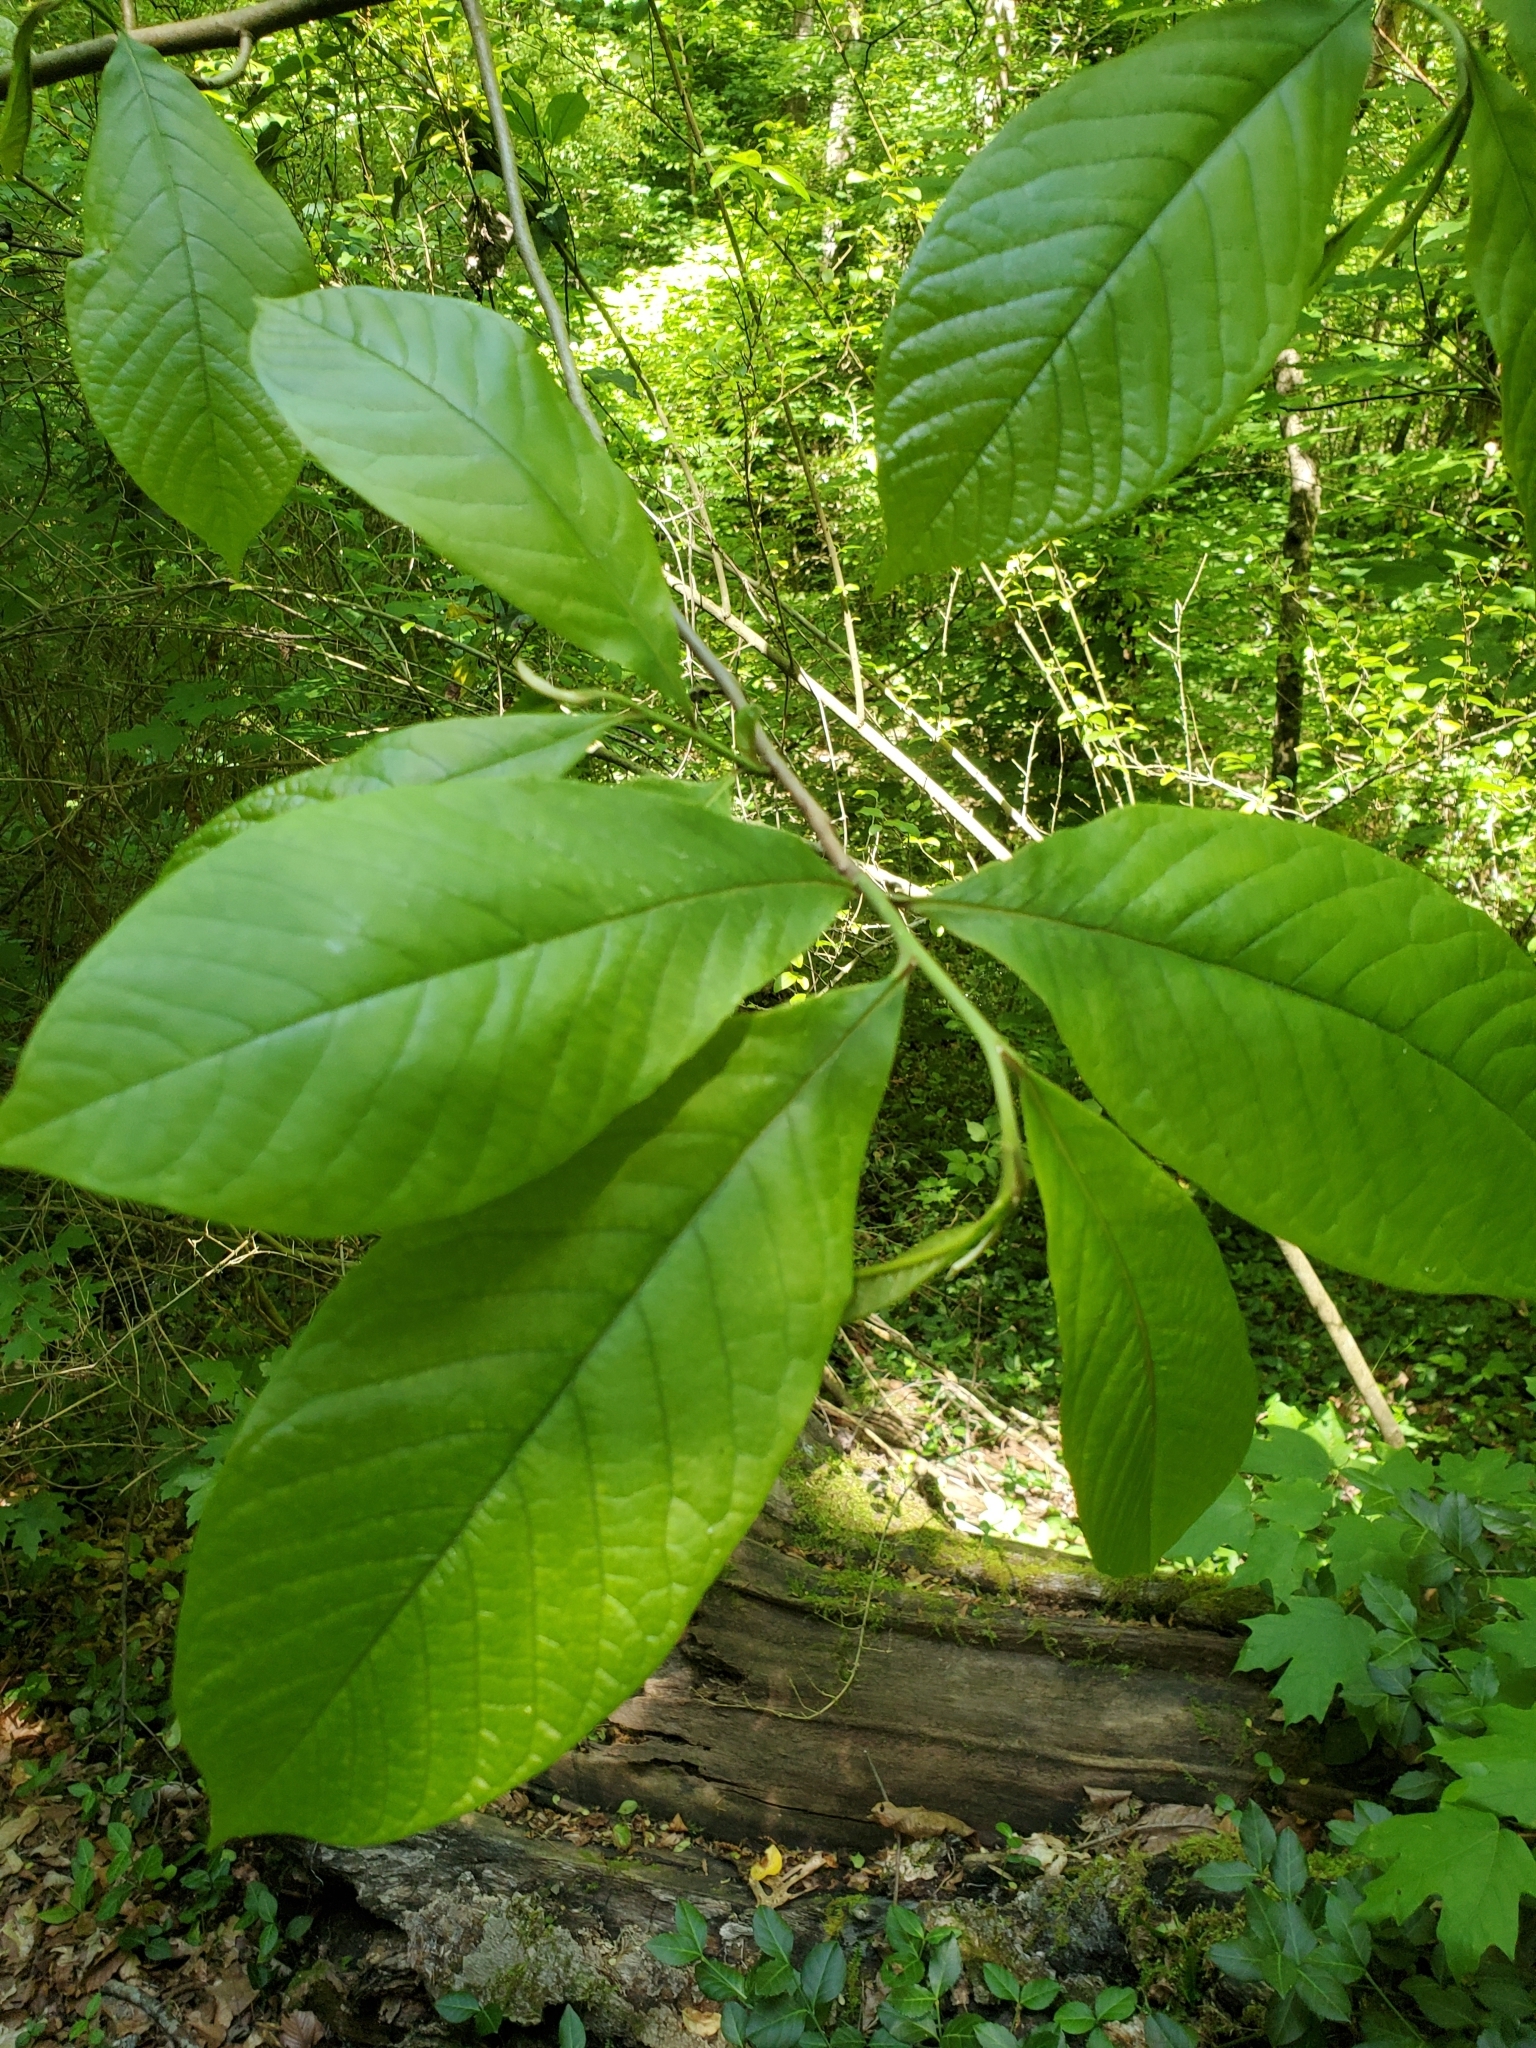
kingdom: Plantae
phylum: Tracheophyta
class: Magnoliopsida
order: Magnoliales
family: Annonaceae
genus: Asimina
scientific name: Asimina triloba
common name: Dog-banana
